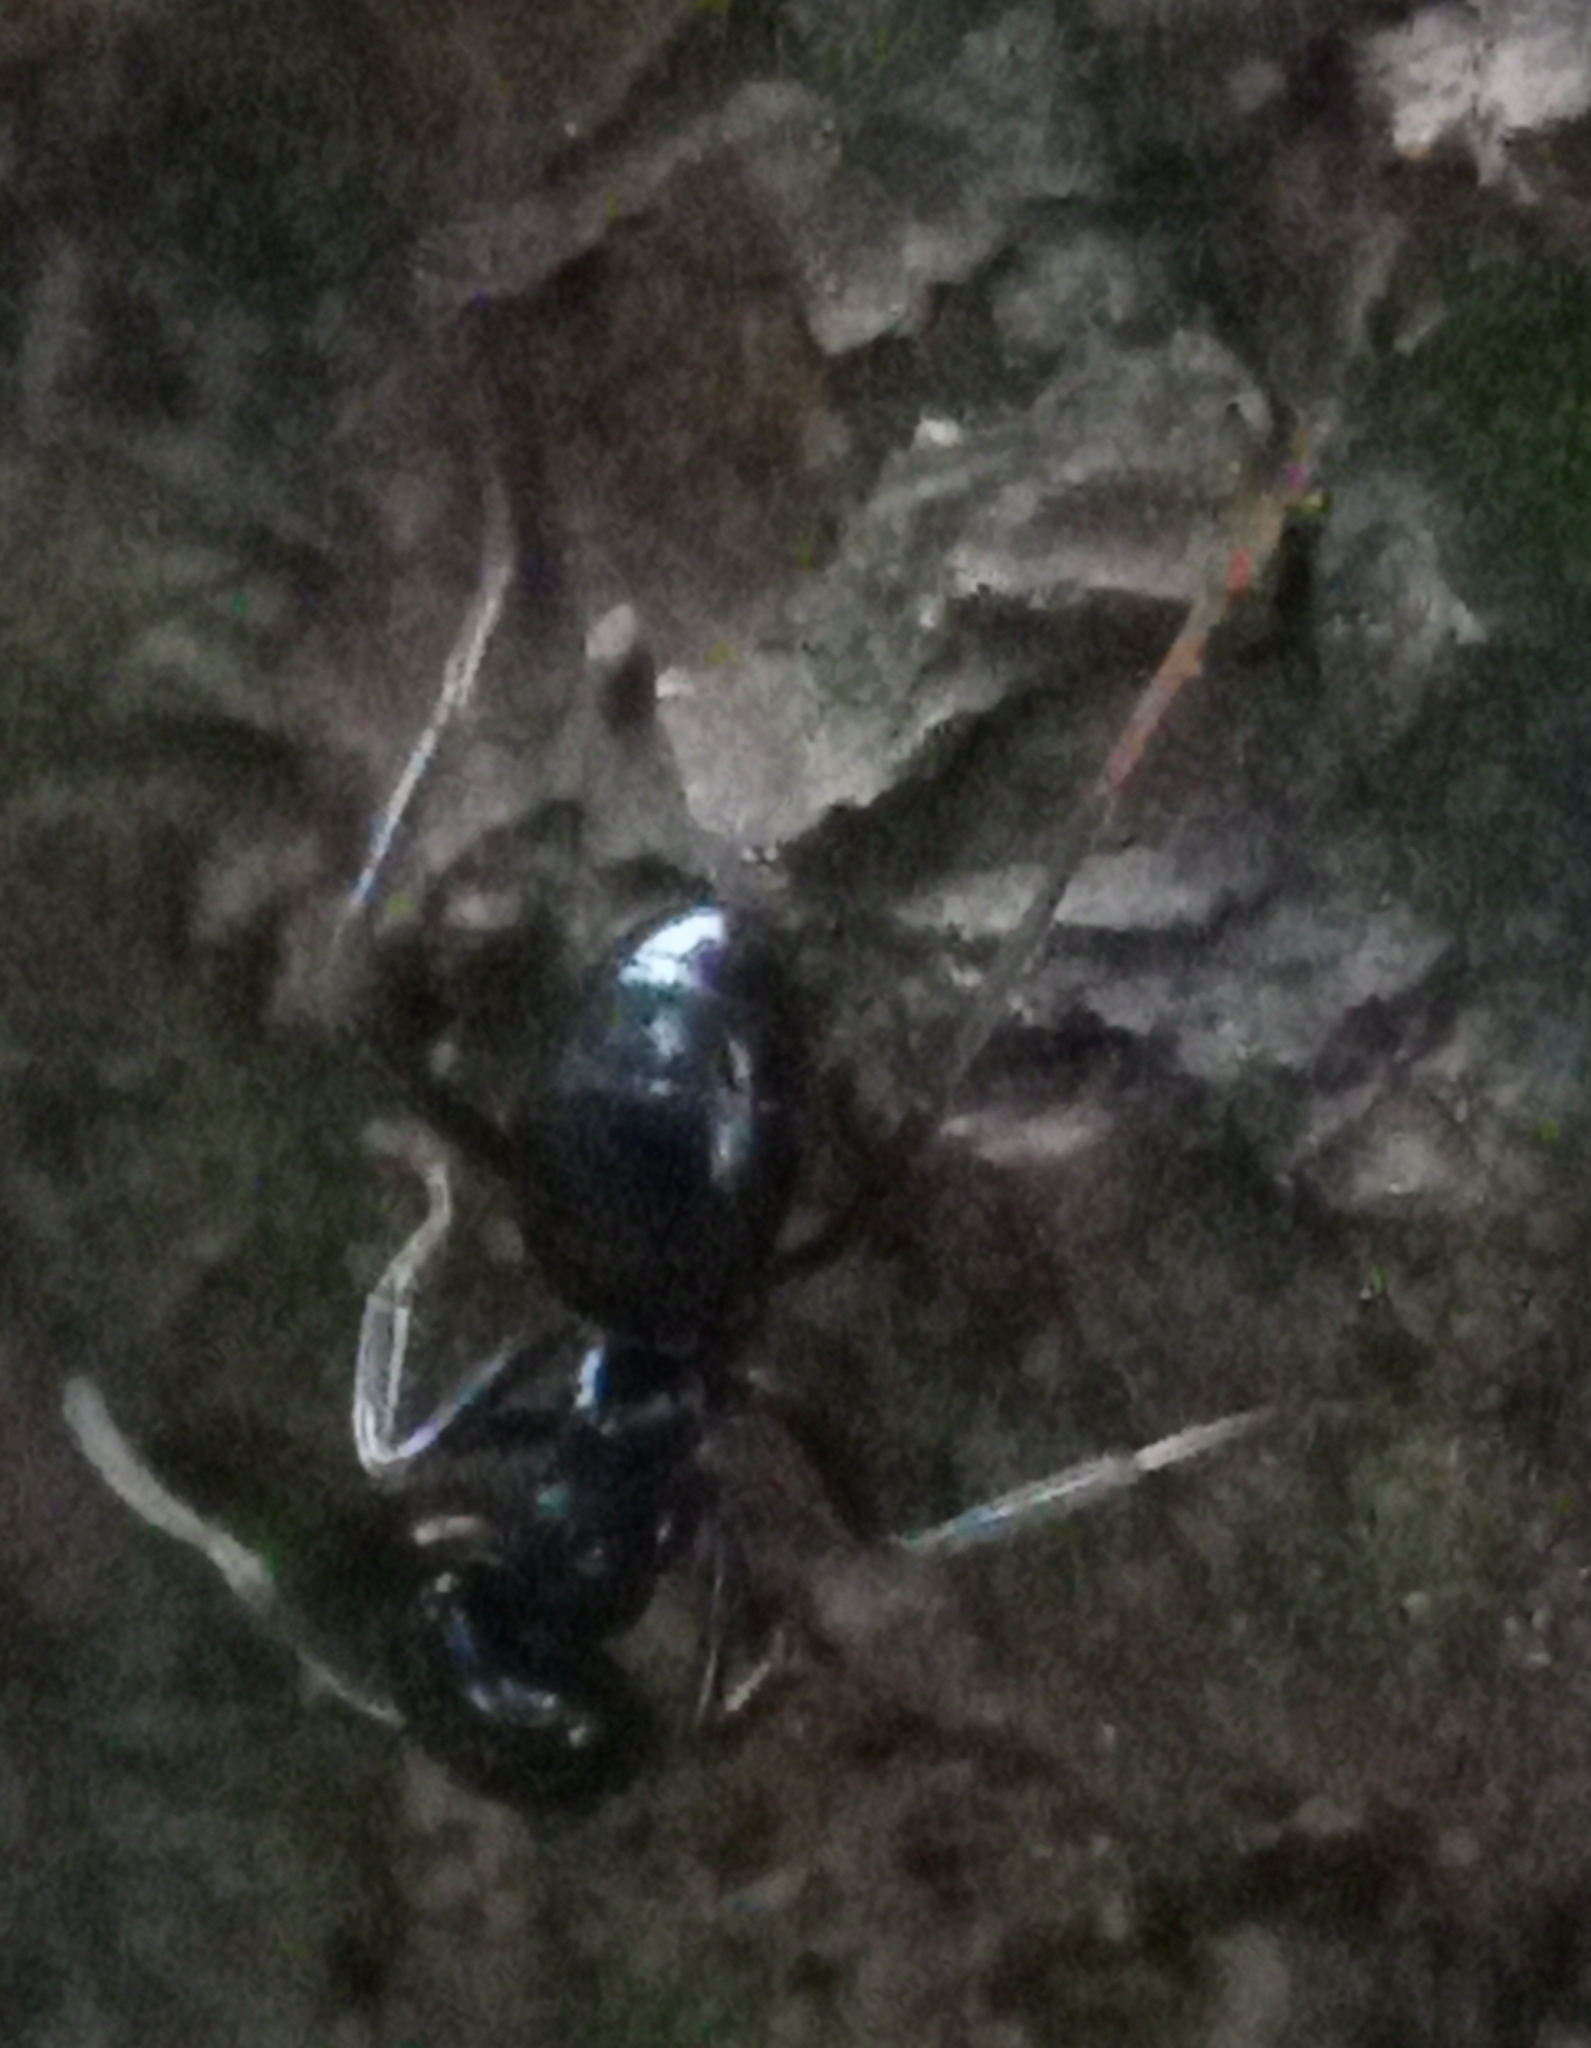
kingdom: Animalia
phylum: Arthropoda
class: Insecta
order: Hymenoptera
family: Formicidae
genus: Lasius
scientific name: Lasius fuliginosus
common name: Jet ant
